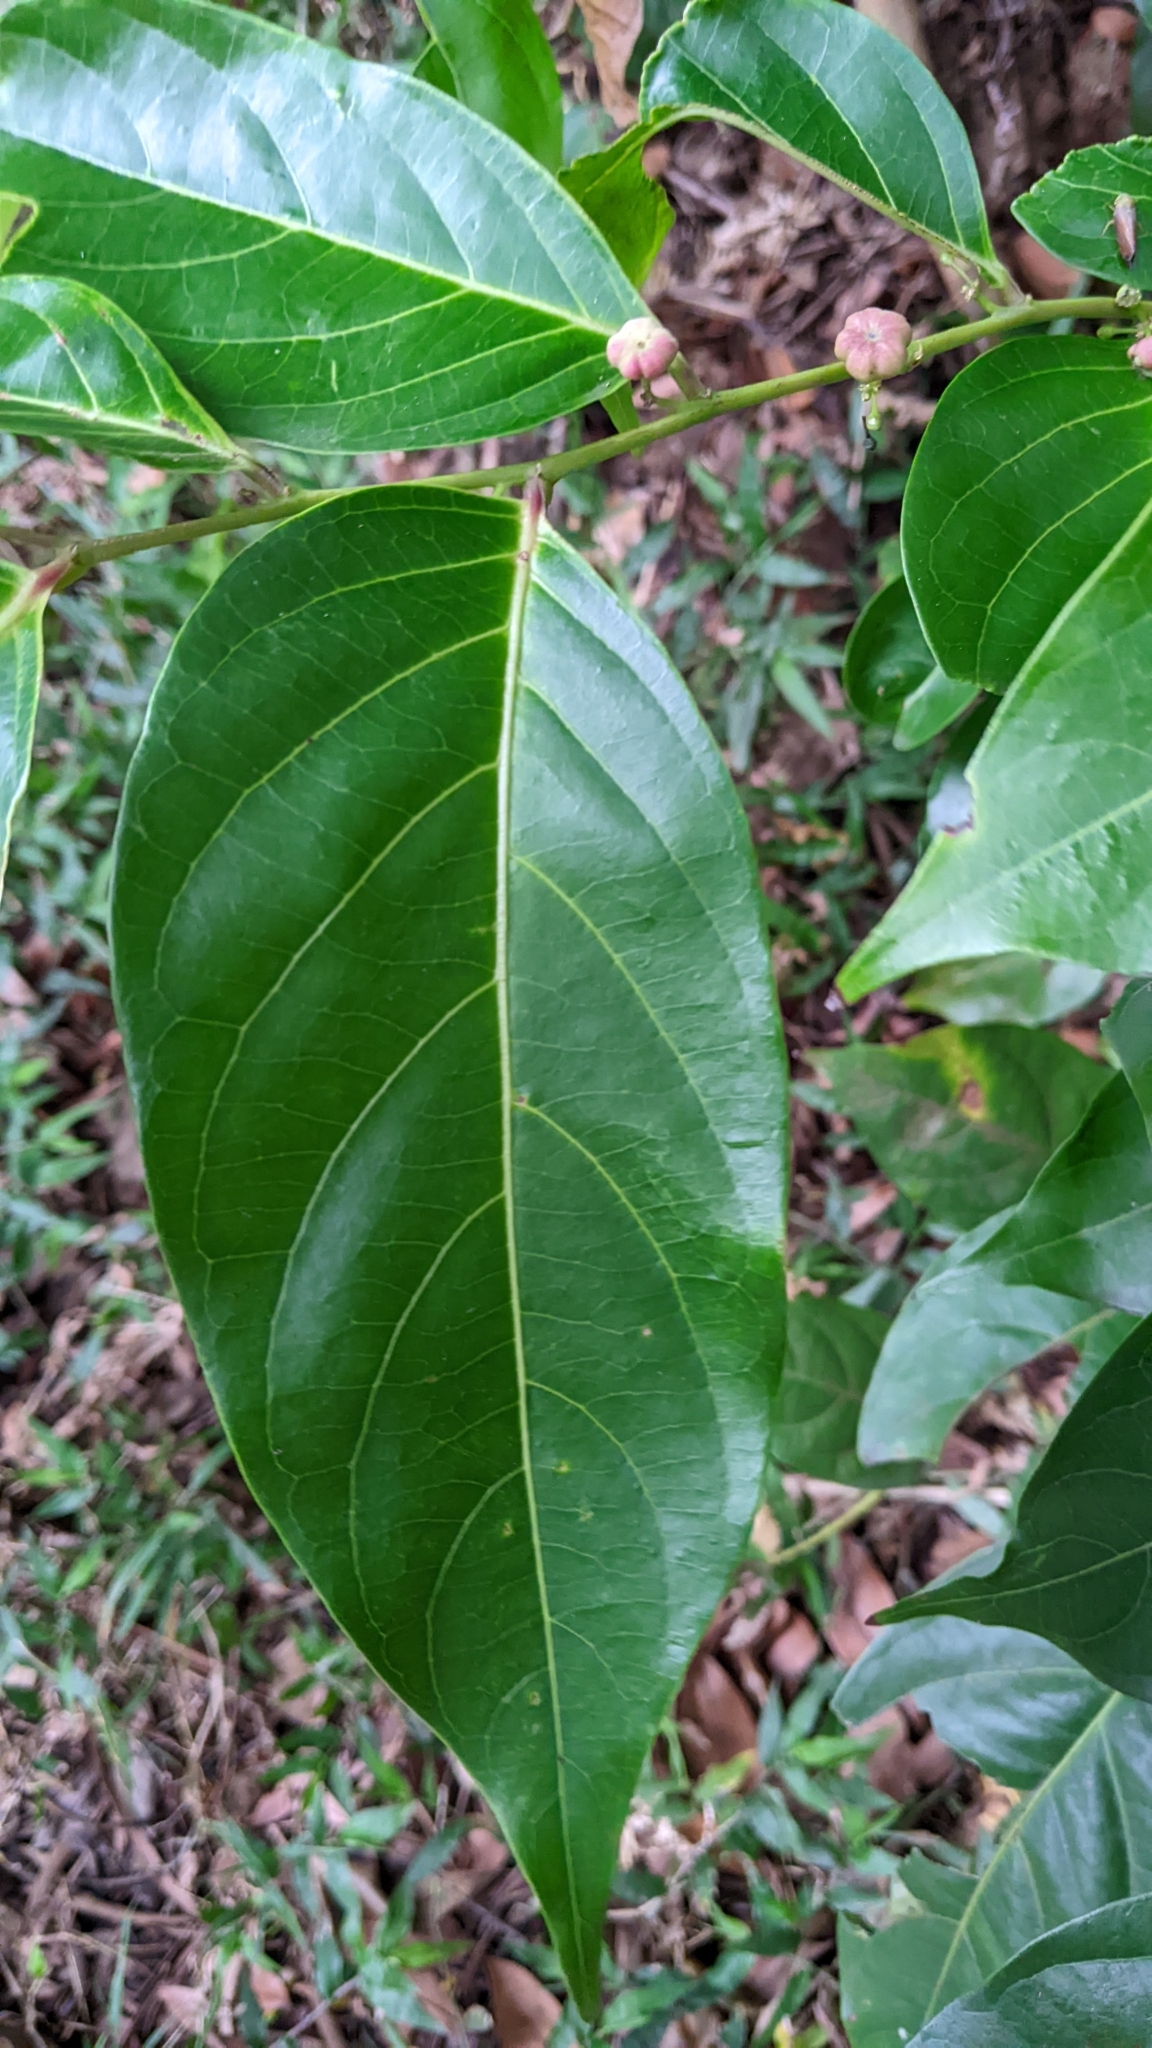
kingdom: Plantae
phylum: Tracheophyta
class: Magnoliopsida
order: Malpighiales
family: Phyllanthaceae
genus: Glochidion
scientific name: Glochidion lanceolatum
